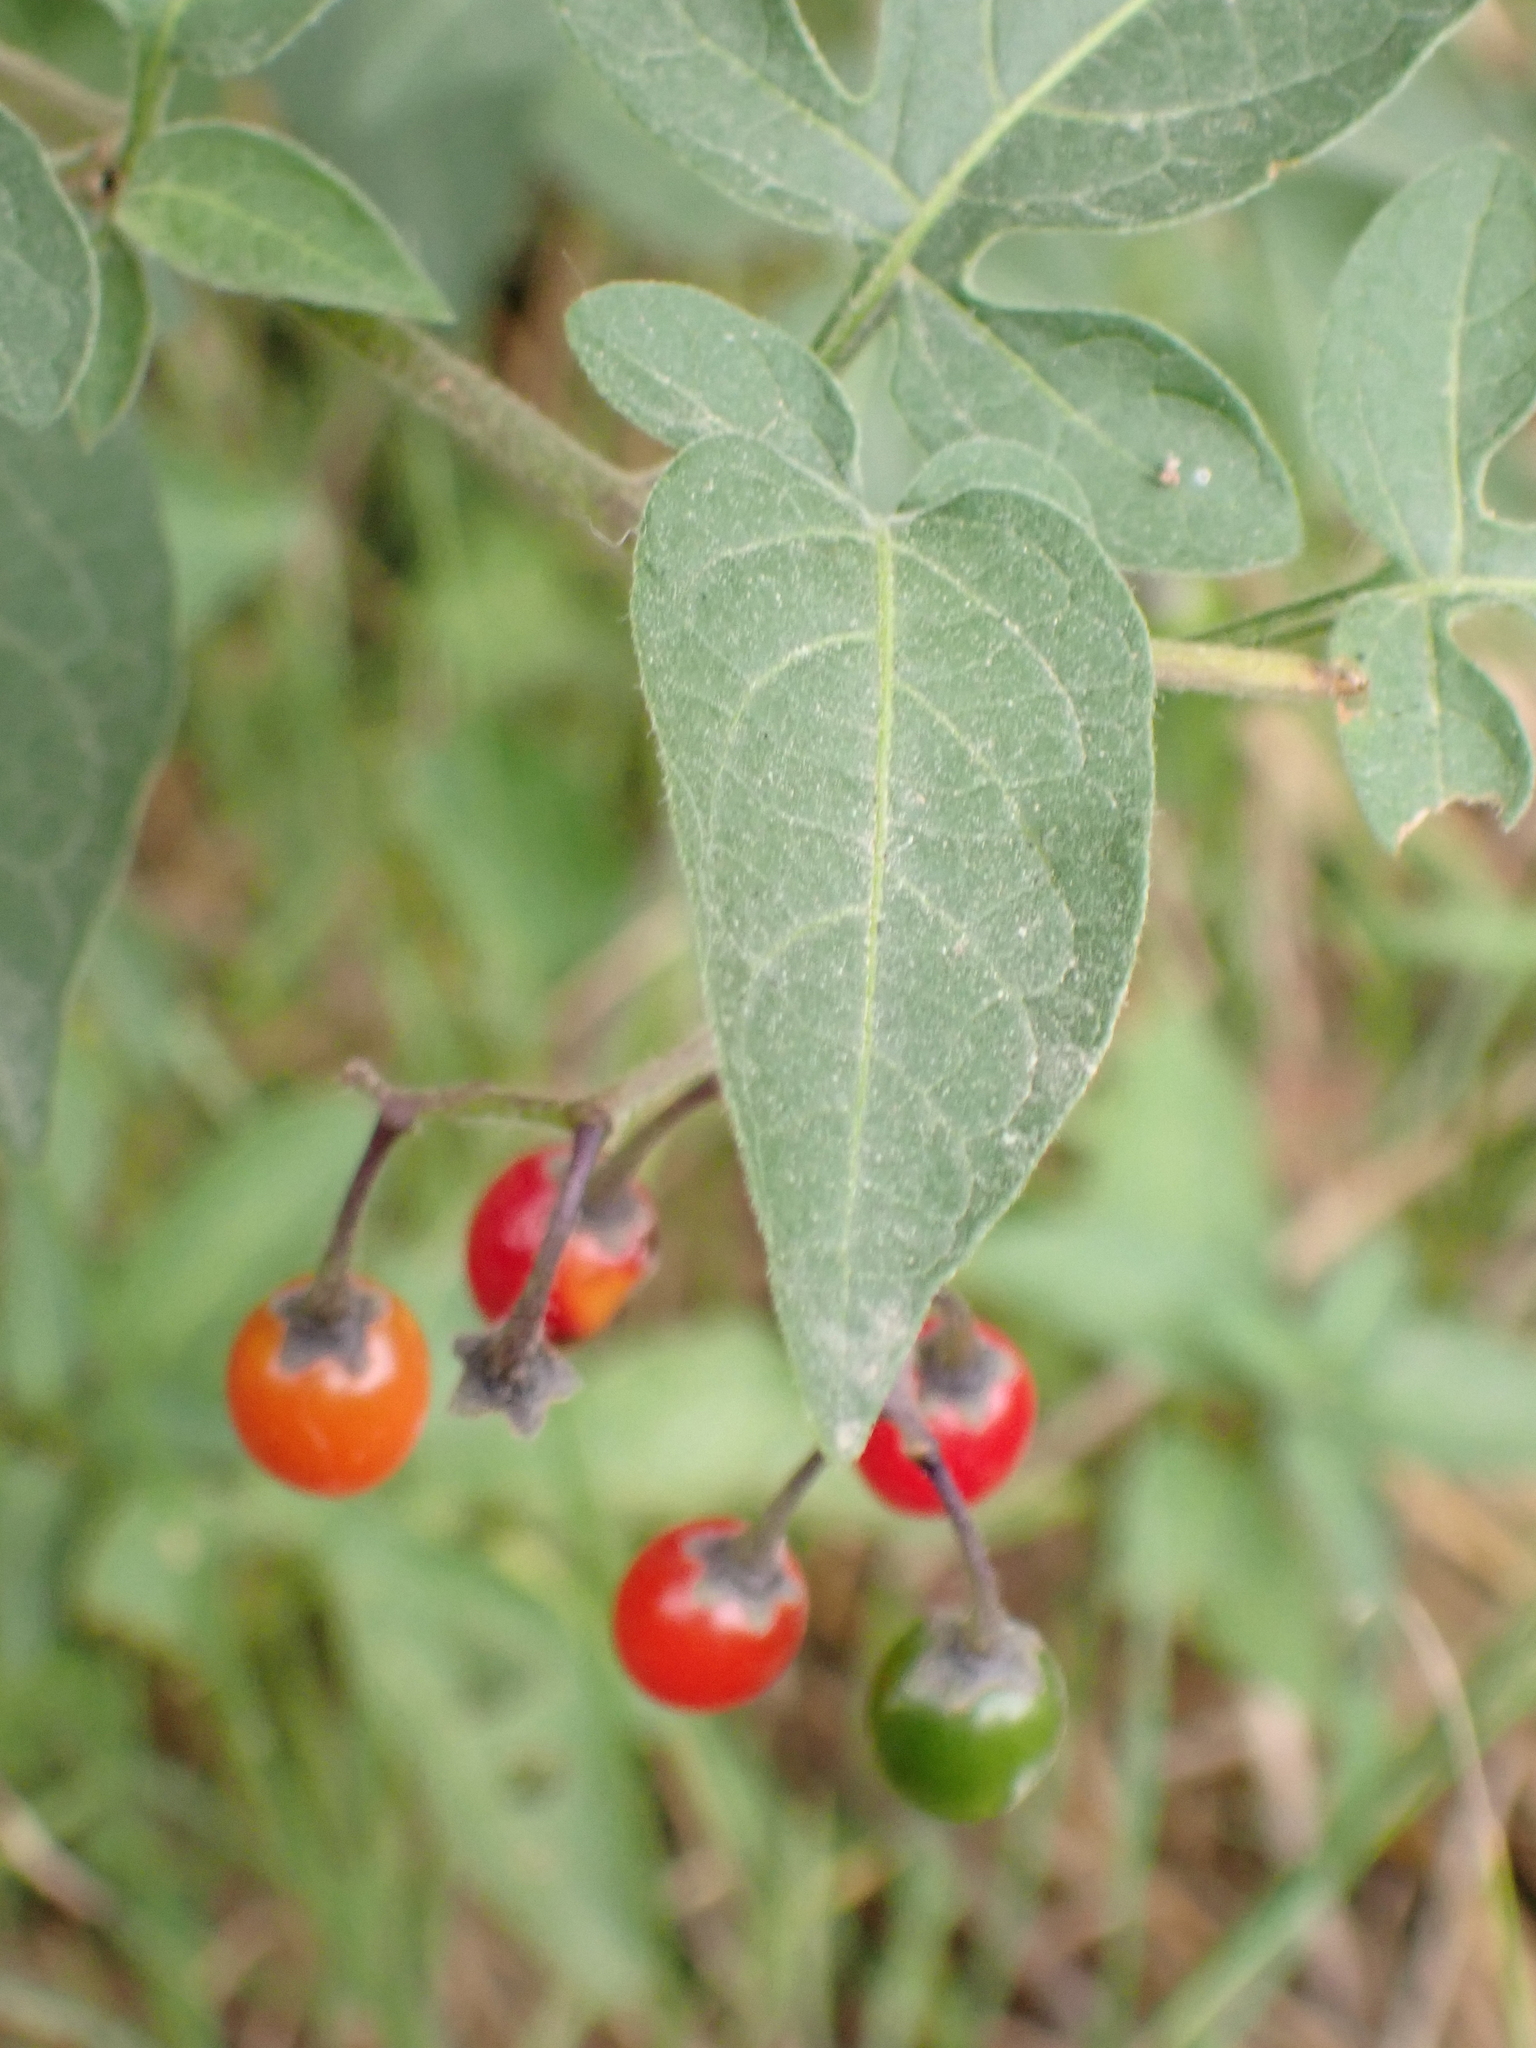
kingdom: Plantae
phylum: Tracheophyta
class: Magnoliopsida
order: Solanales
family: Solanaceae
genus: Solanum
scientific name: Solanum dulcamara
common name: Climbing nightshade
